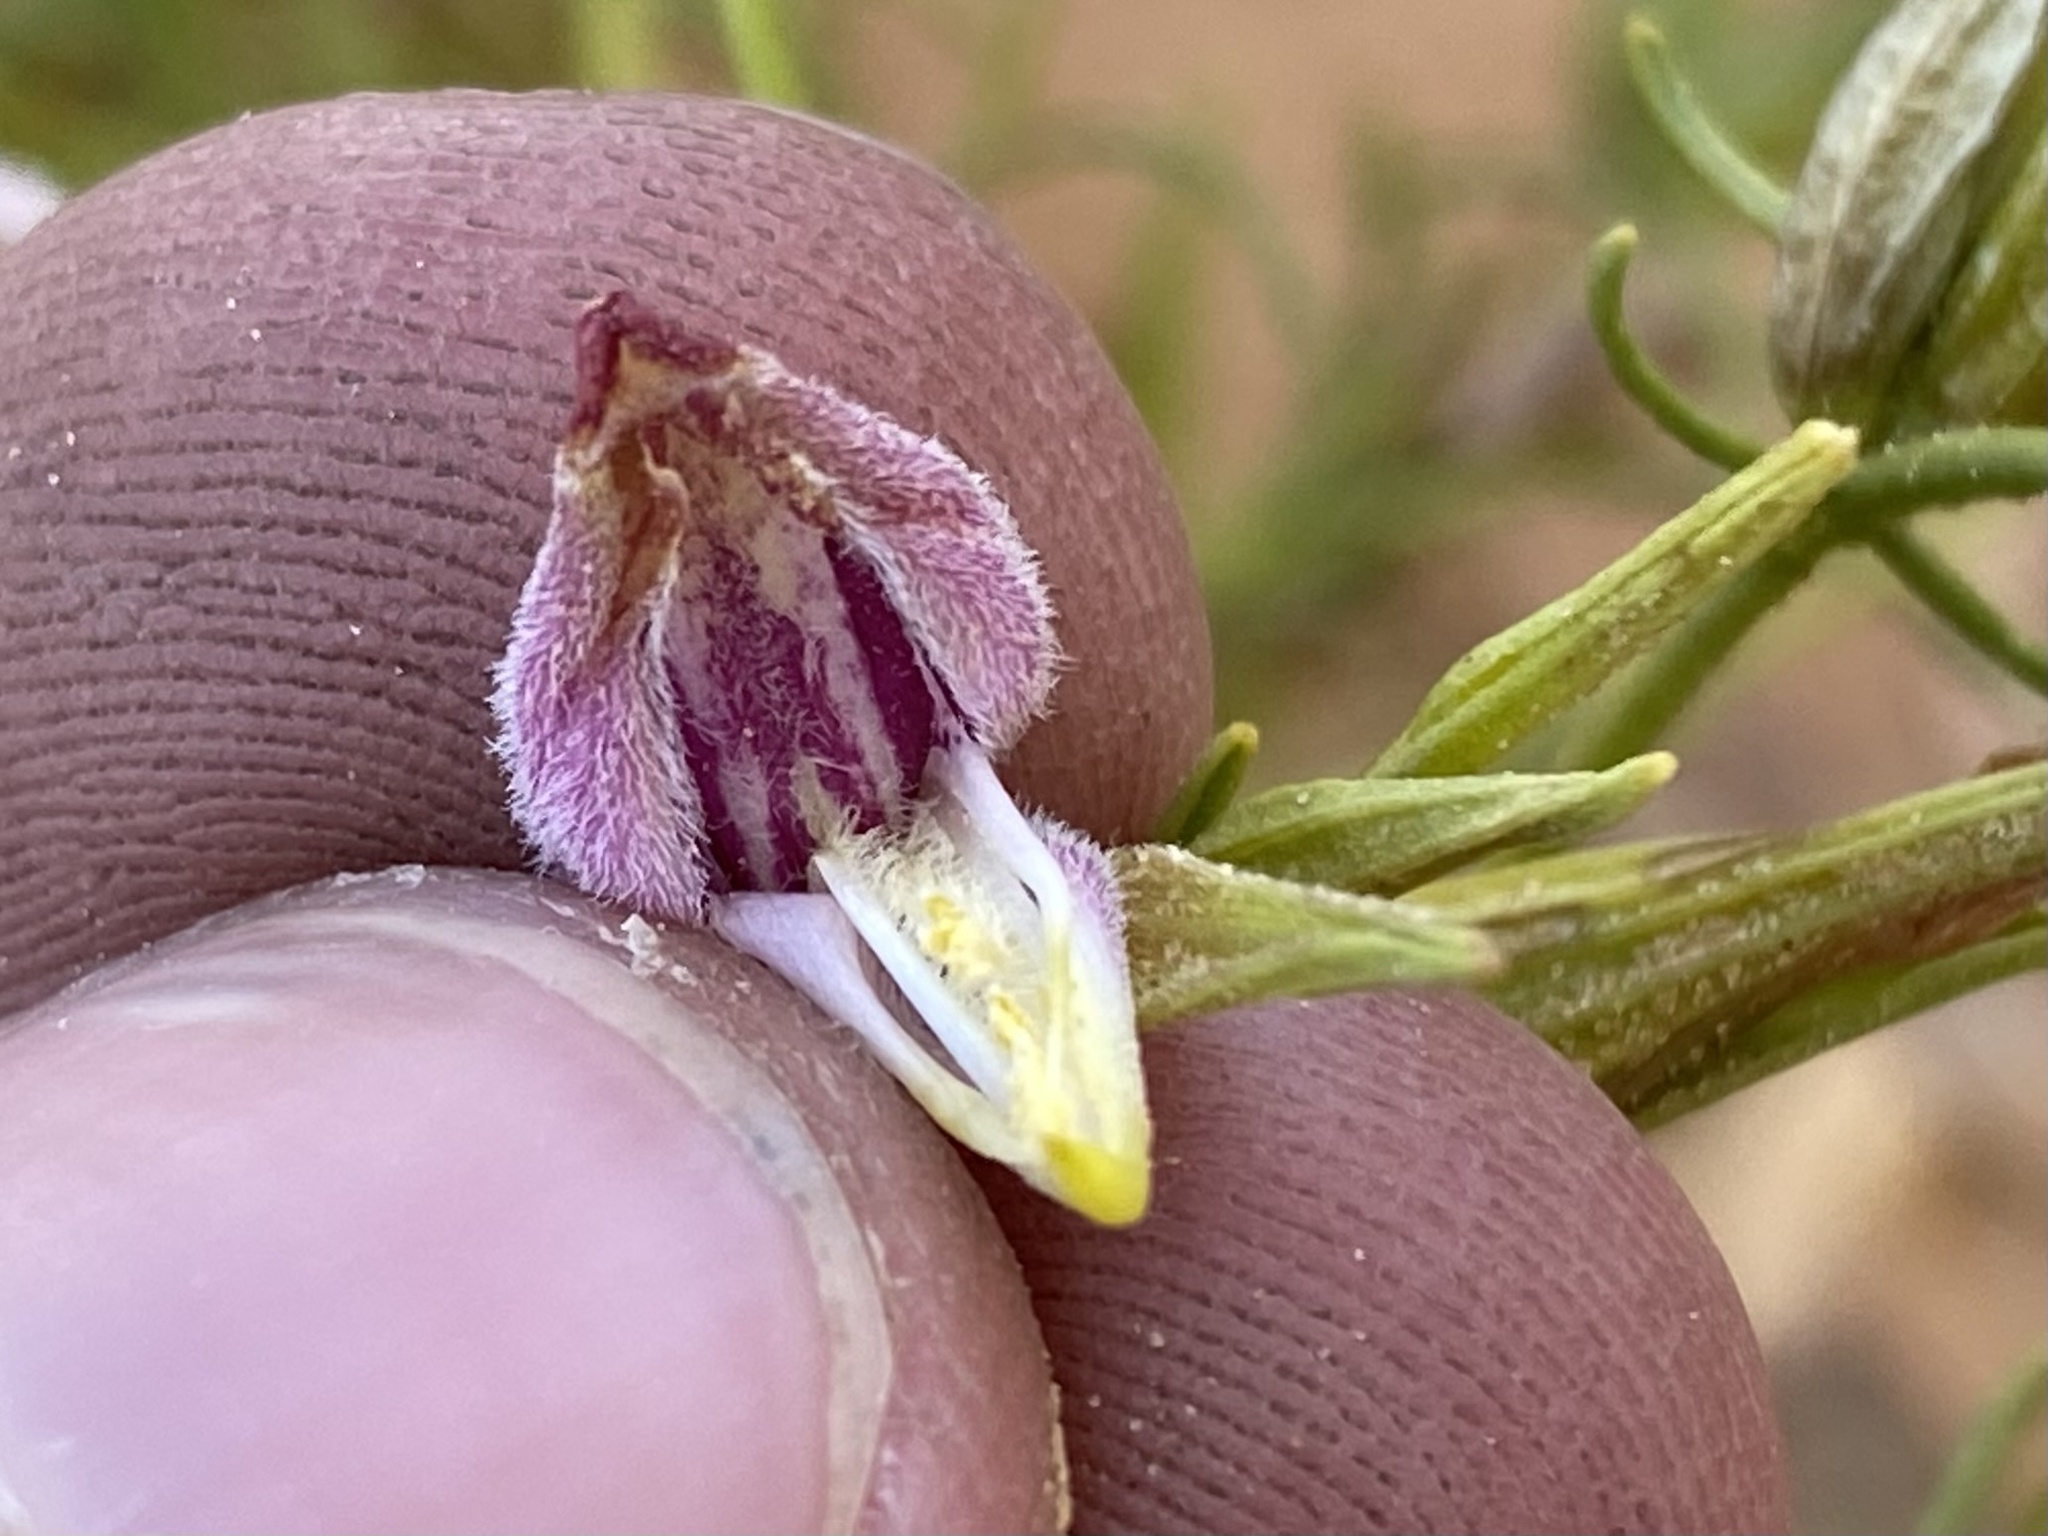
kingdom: Plantae
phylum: Tracheophyta
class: Magnoliopsida
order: Lamiales
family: Orobanchaceae
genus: Cordylanthus
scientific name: Cordylanthus wrightii
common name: Wright's birdsbeak
